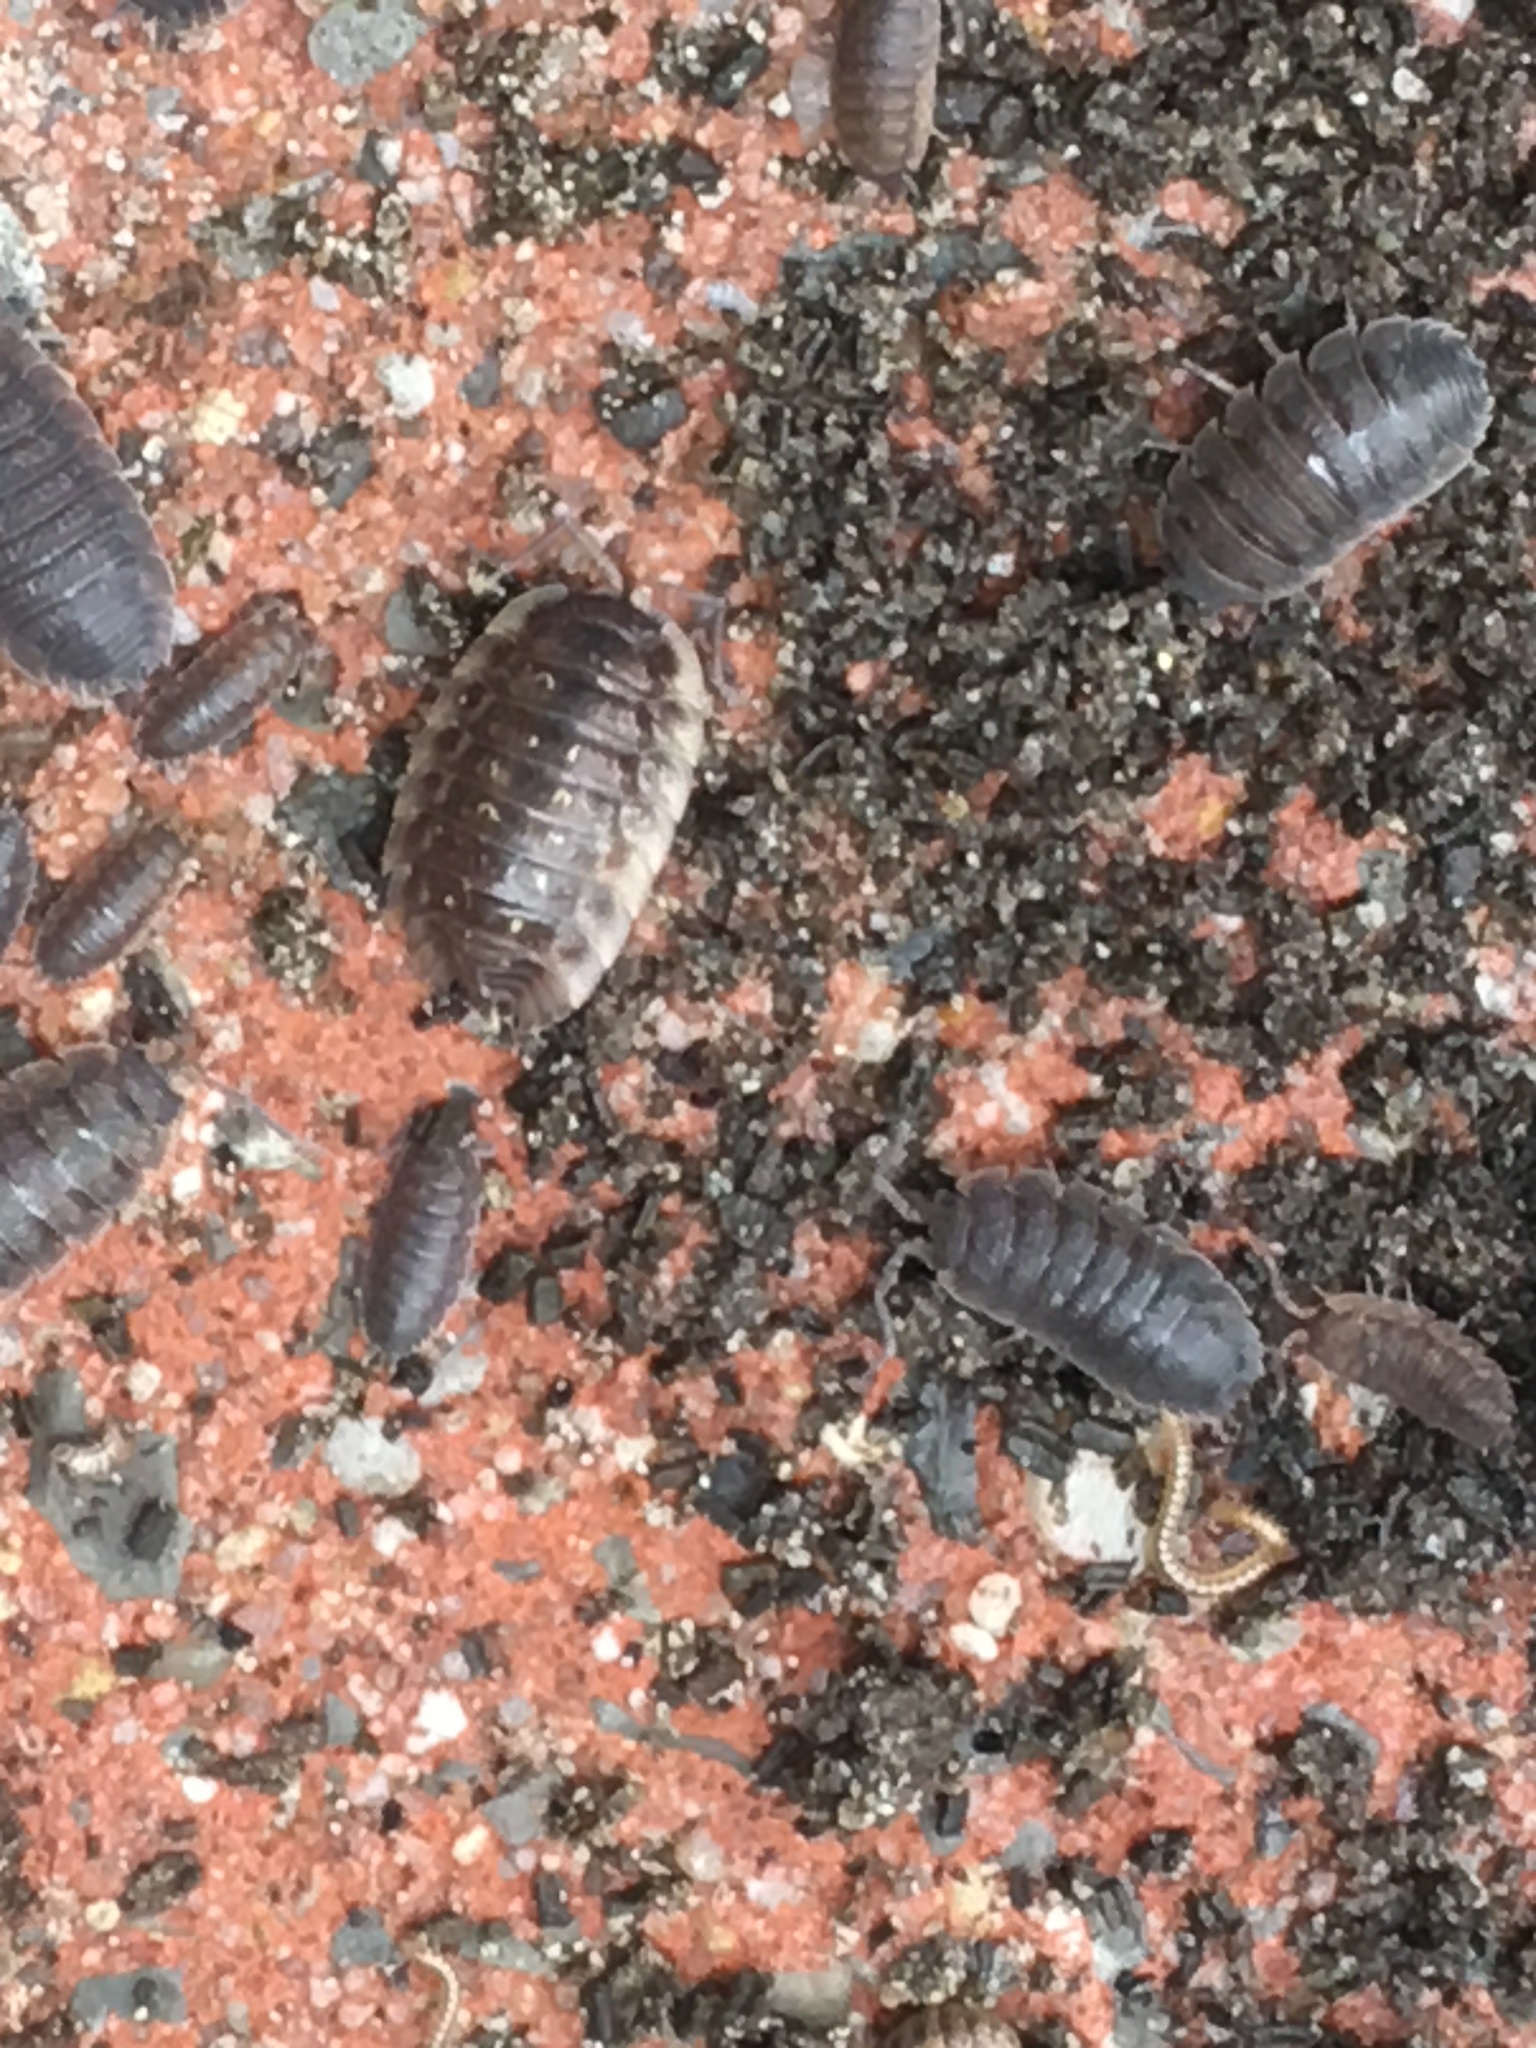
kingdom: Animalia
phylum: Arthropoda
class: Malacostraca
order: Isopoda
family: Oniscidae
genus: Oniscus
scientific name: Oniscus asellus
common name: Common shiny woodlouse
